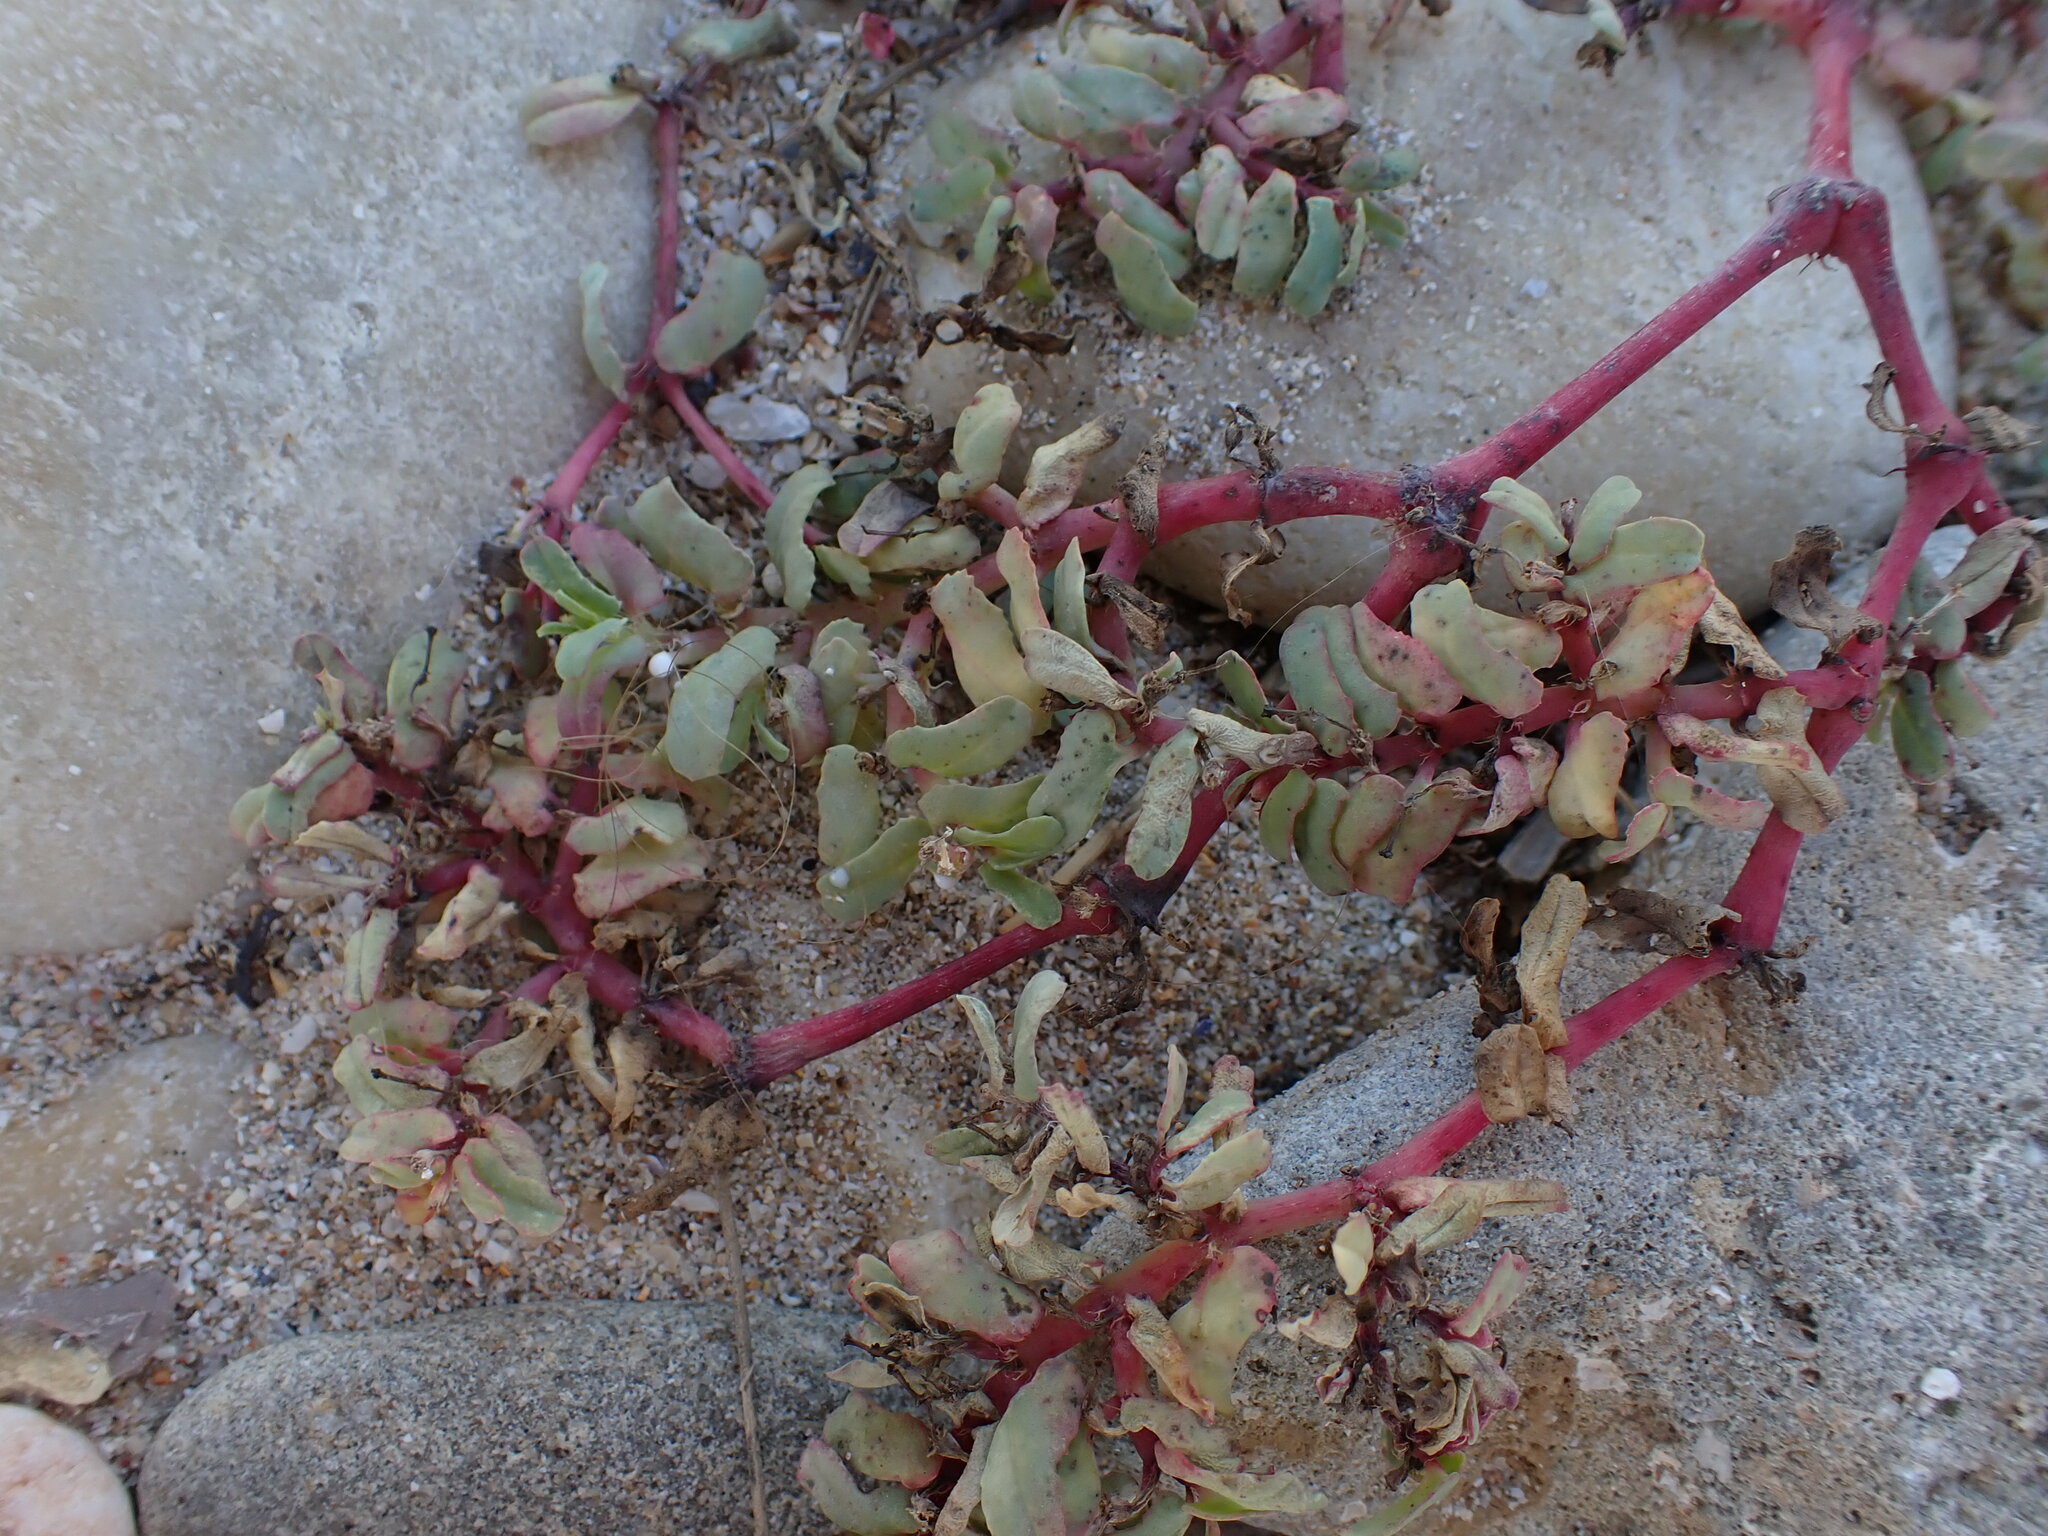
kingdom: Plantae
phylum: Tracheophyta
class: Magnoliopsida
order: Malpighiales
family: Euphorbiaceae
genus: Euphorbia
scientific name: Euphorbia peplis
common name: Purple spurge
